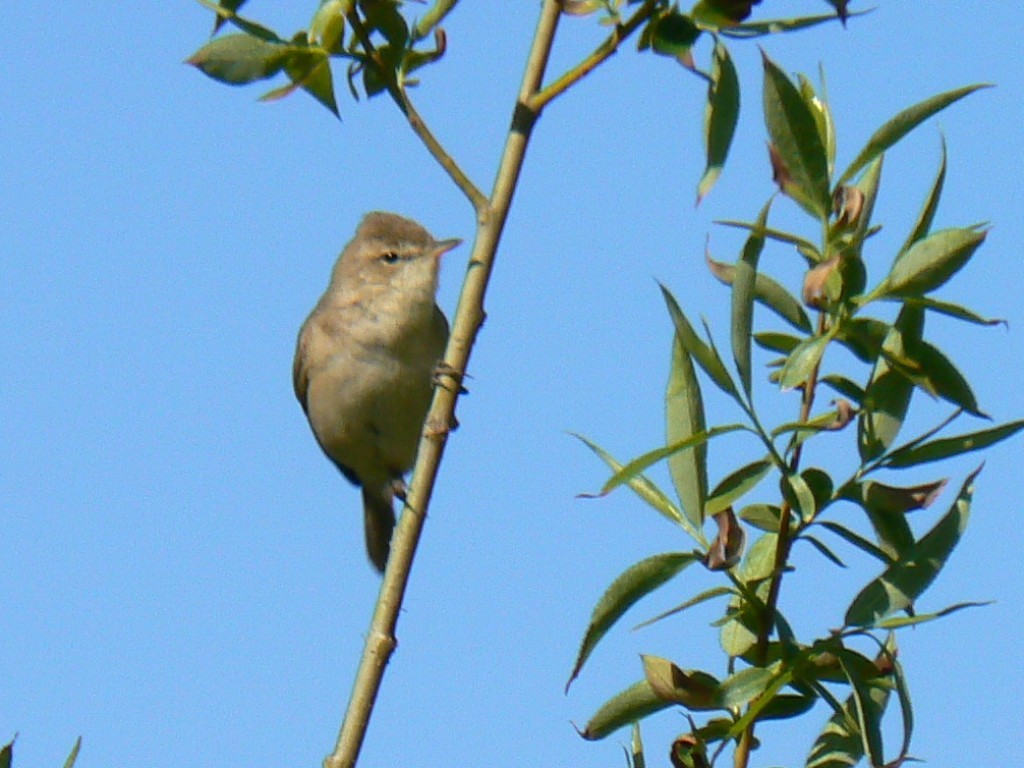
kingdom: Animalia
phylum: Chordata
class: Aves
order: Passeriformes
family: Acrocephalidae
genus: Iduna
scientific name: Iduna caligata
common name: Booted warbler
